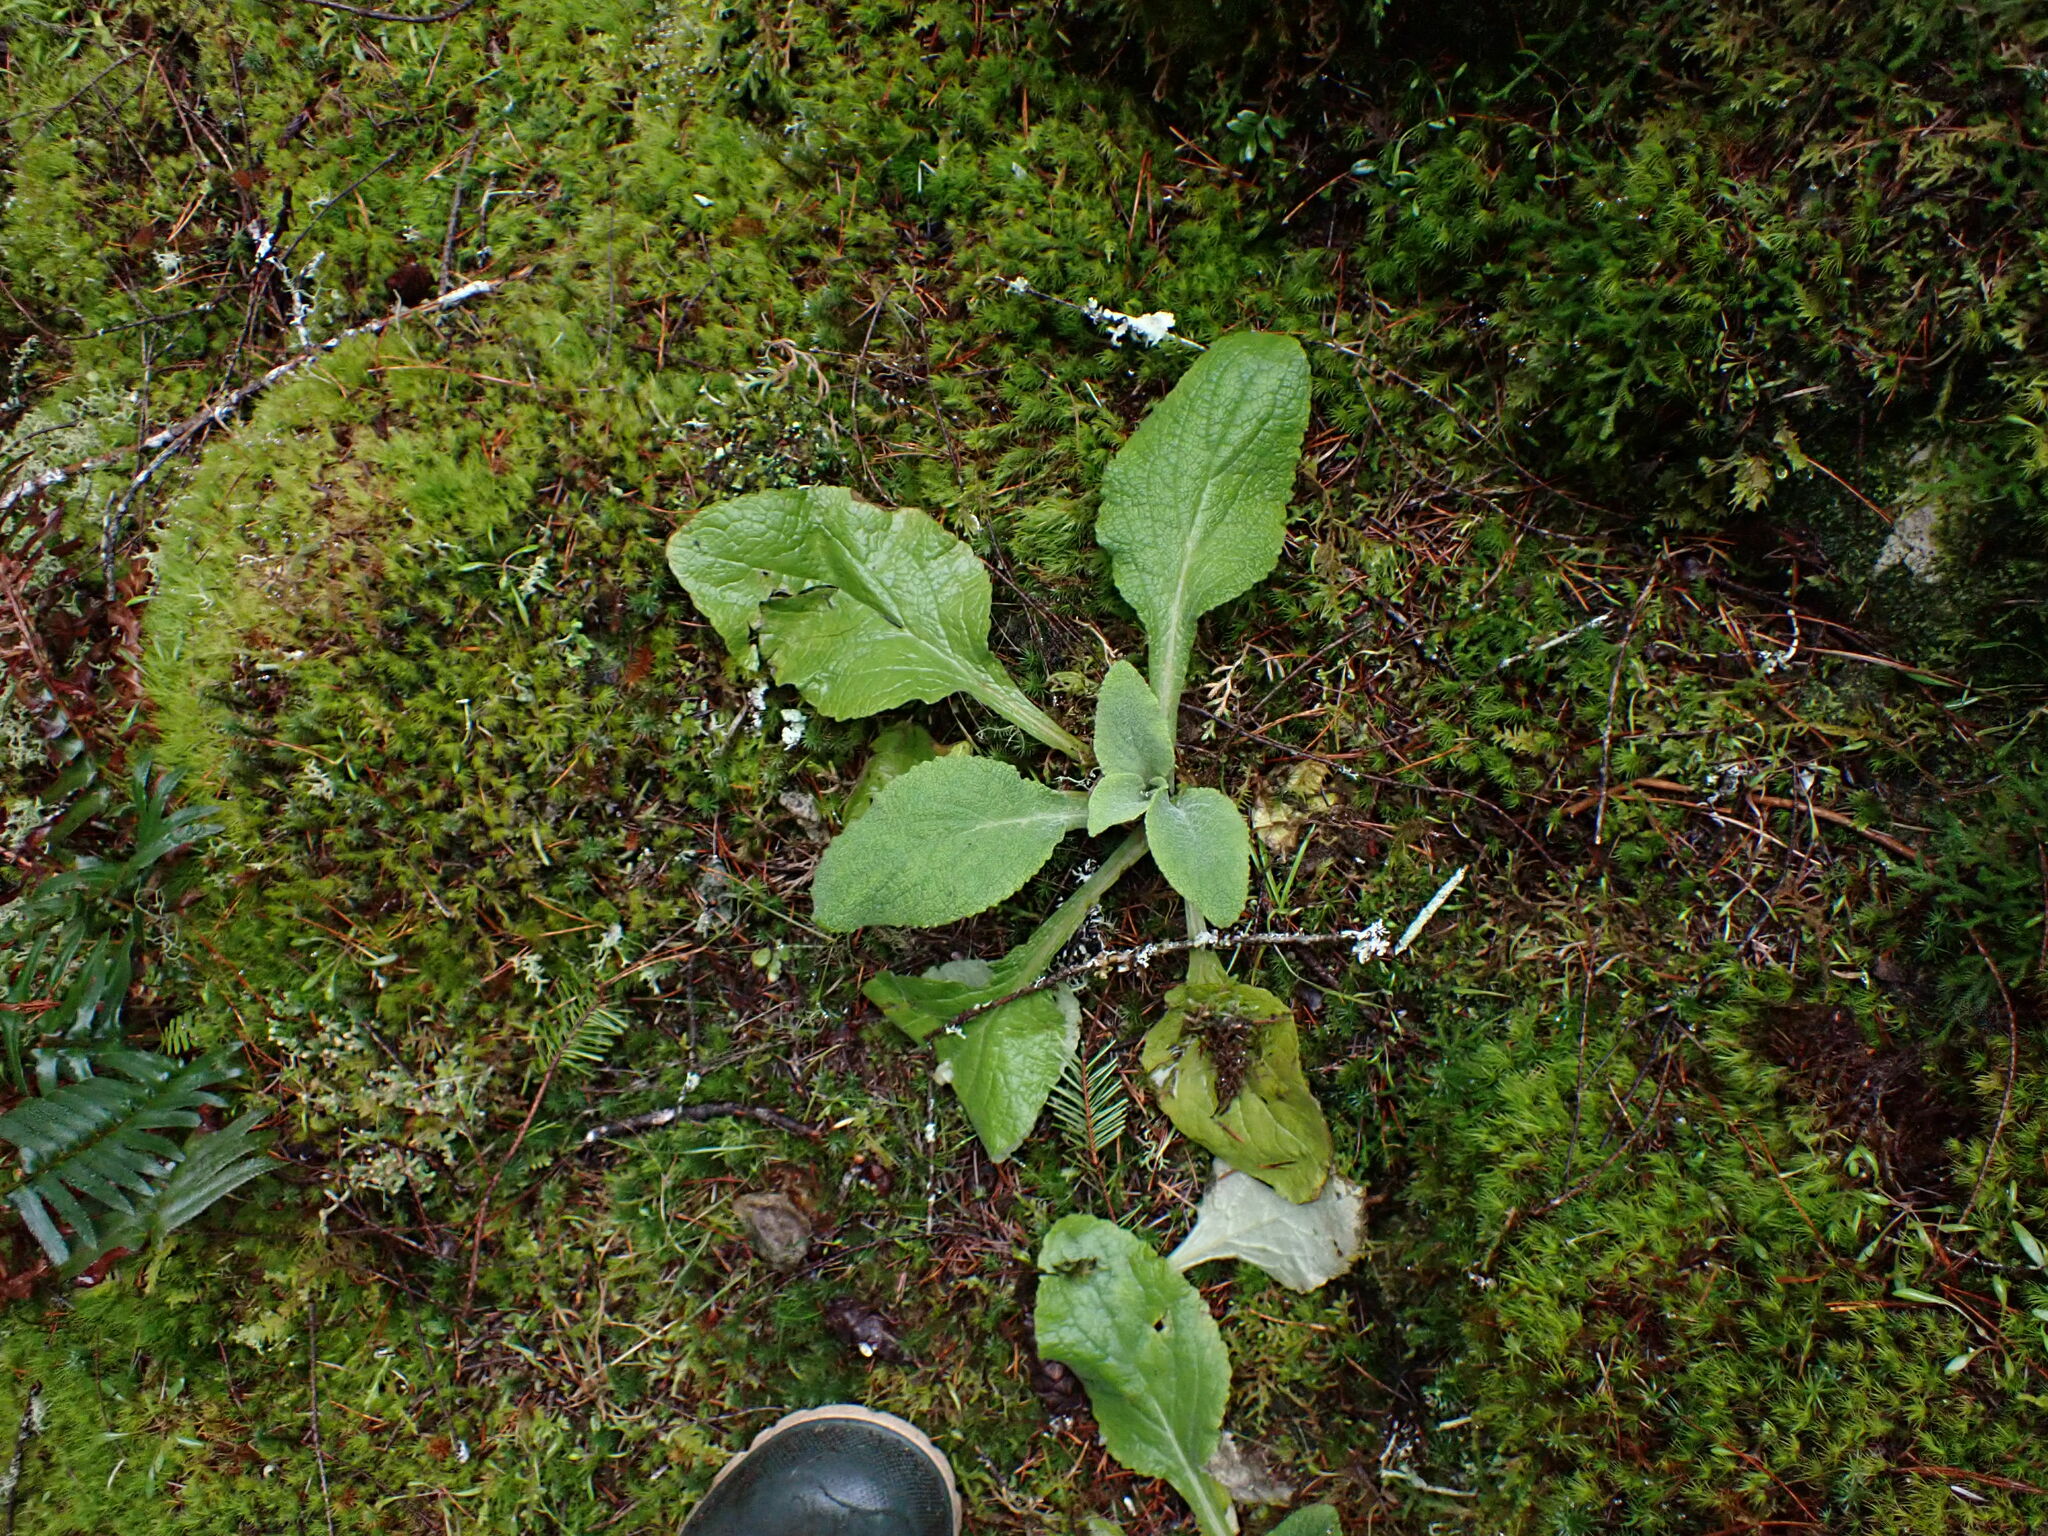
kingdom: Plantae
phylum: Tracheophyta
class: Magnoliopsida
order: Lamiales
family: Plantaginaceae
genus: Digitalis
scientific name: Digitalis purpurea
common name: Foxglove
